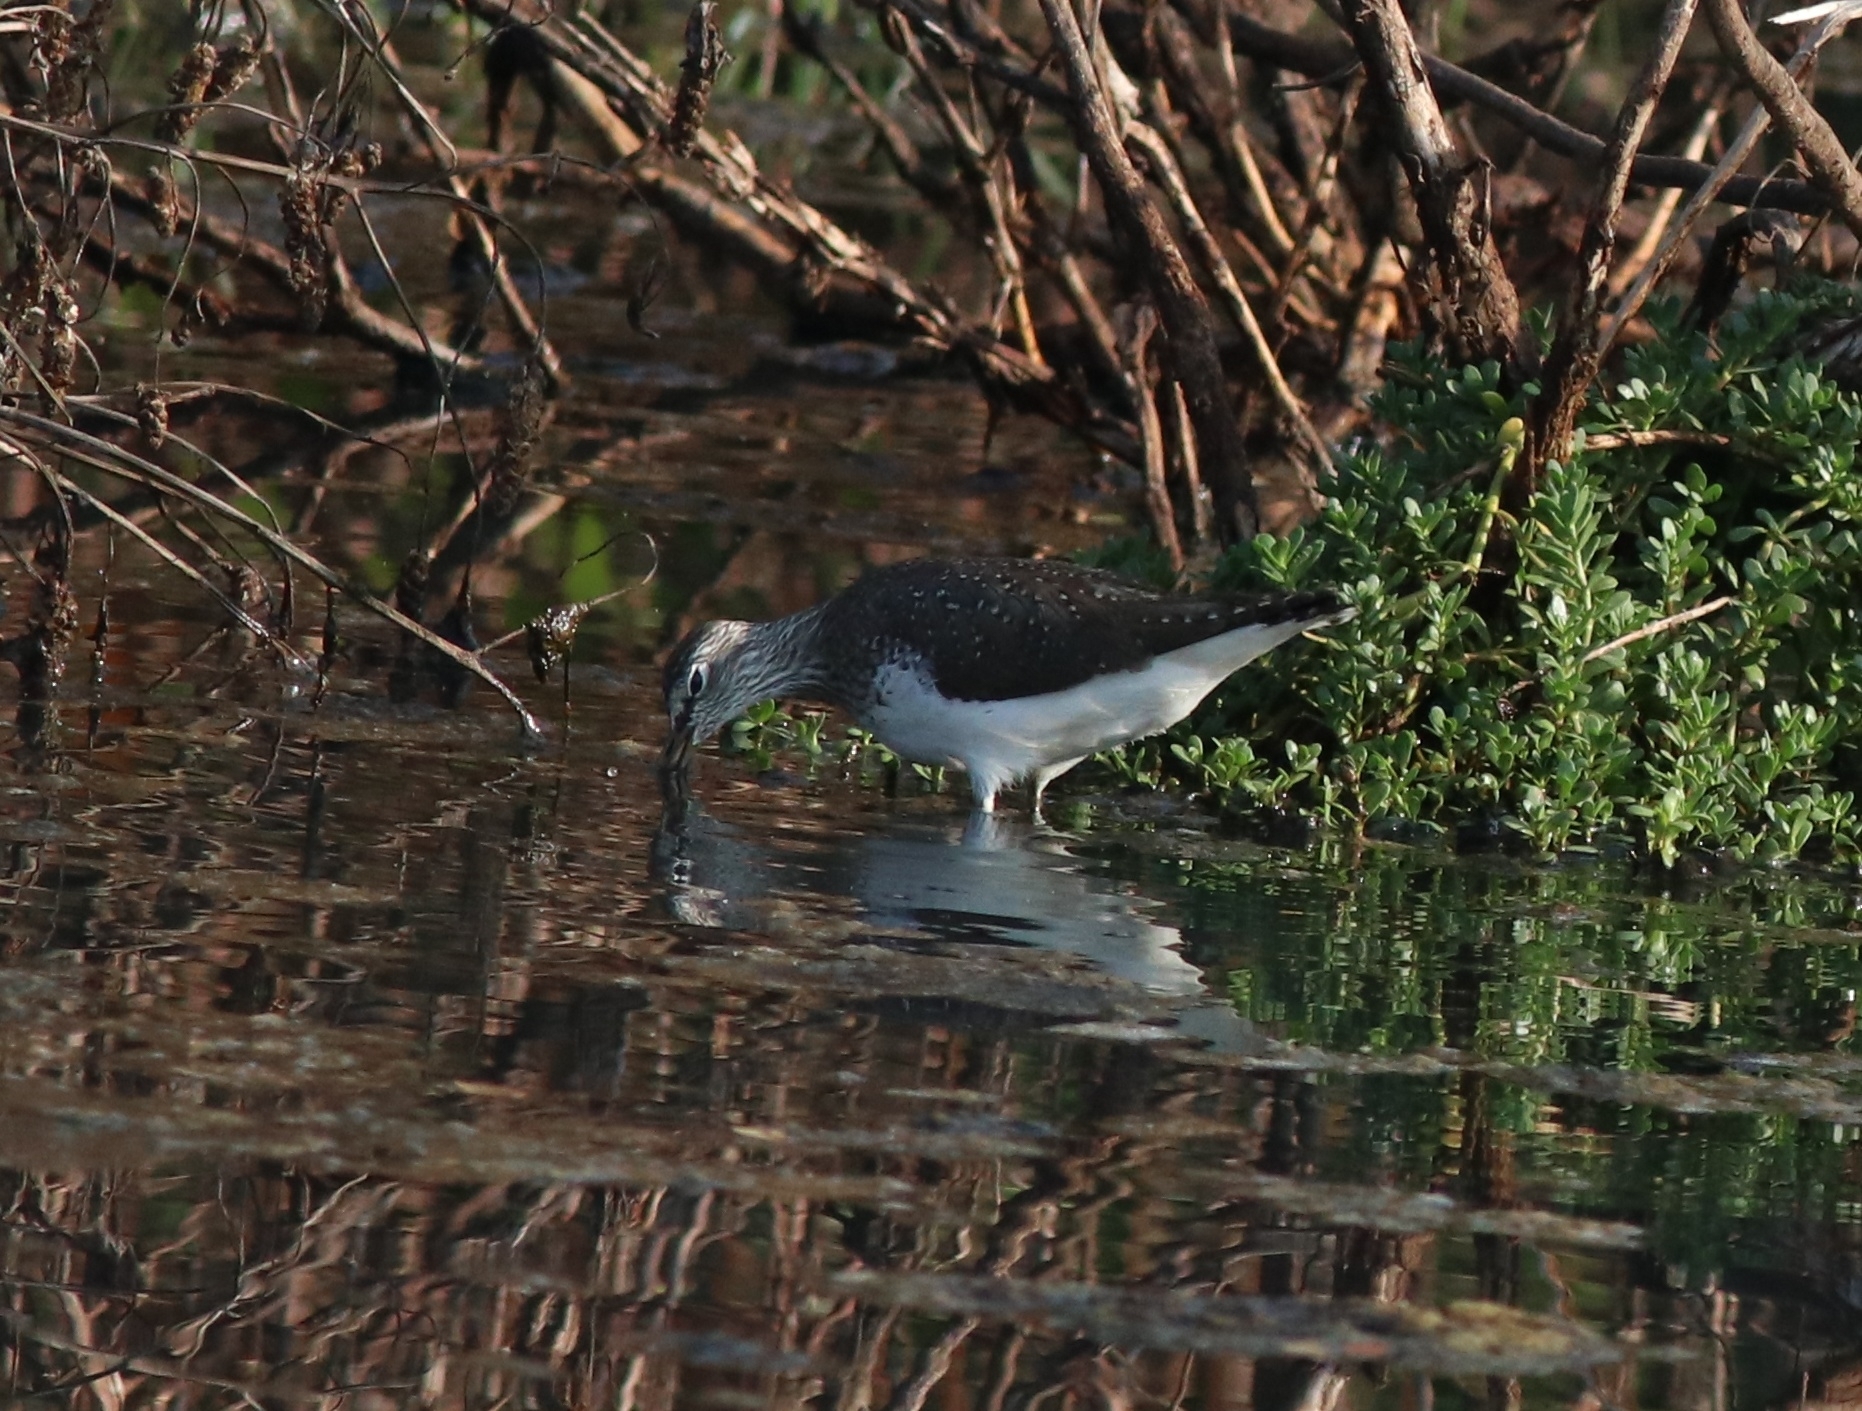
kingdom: Animalia
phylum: Chordata
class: Aves
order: Charadriiformes
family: Scolopacidae
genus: Tringa
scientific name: Tringa ochropus
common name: Green sandpiper
